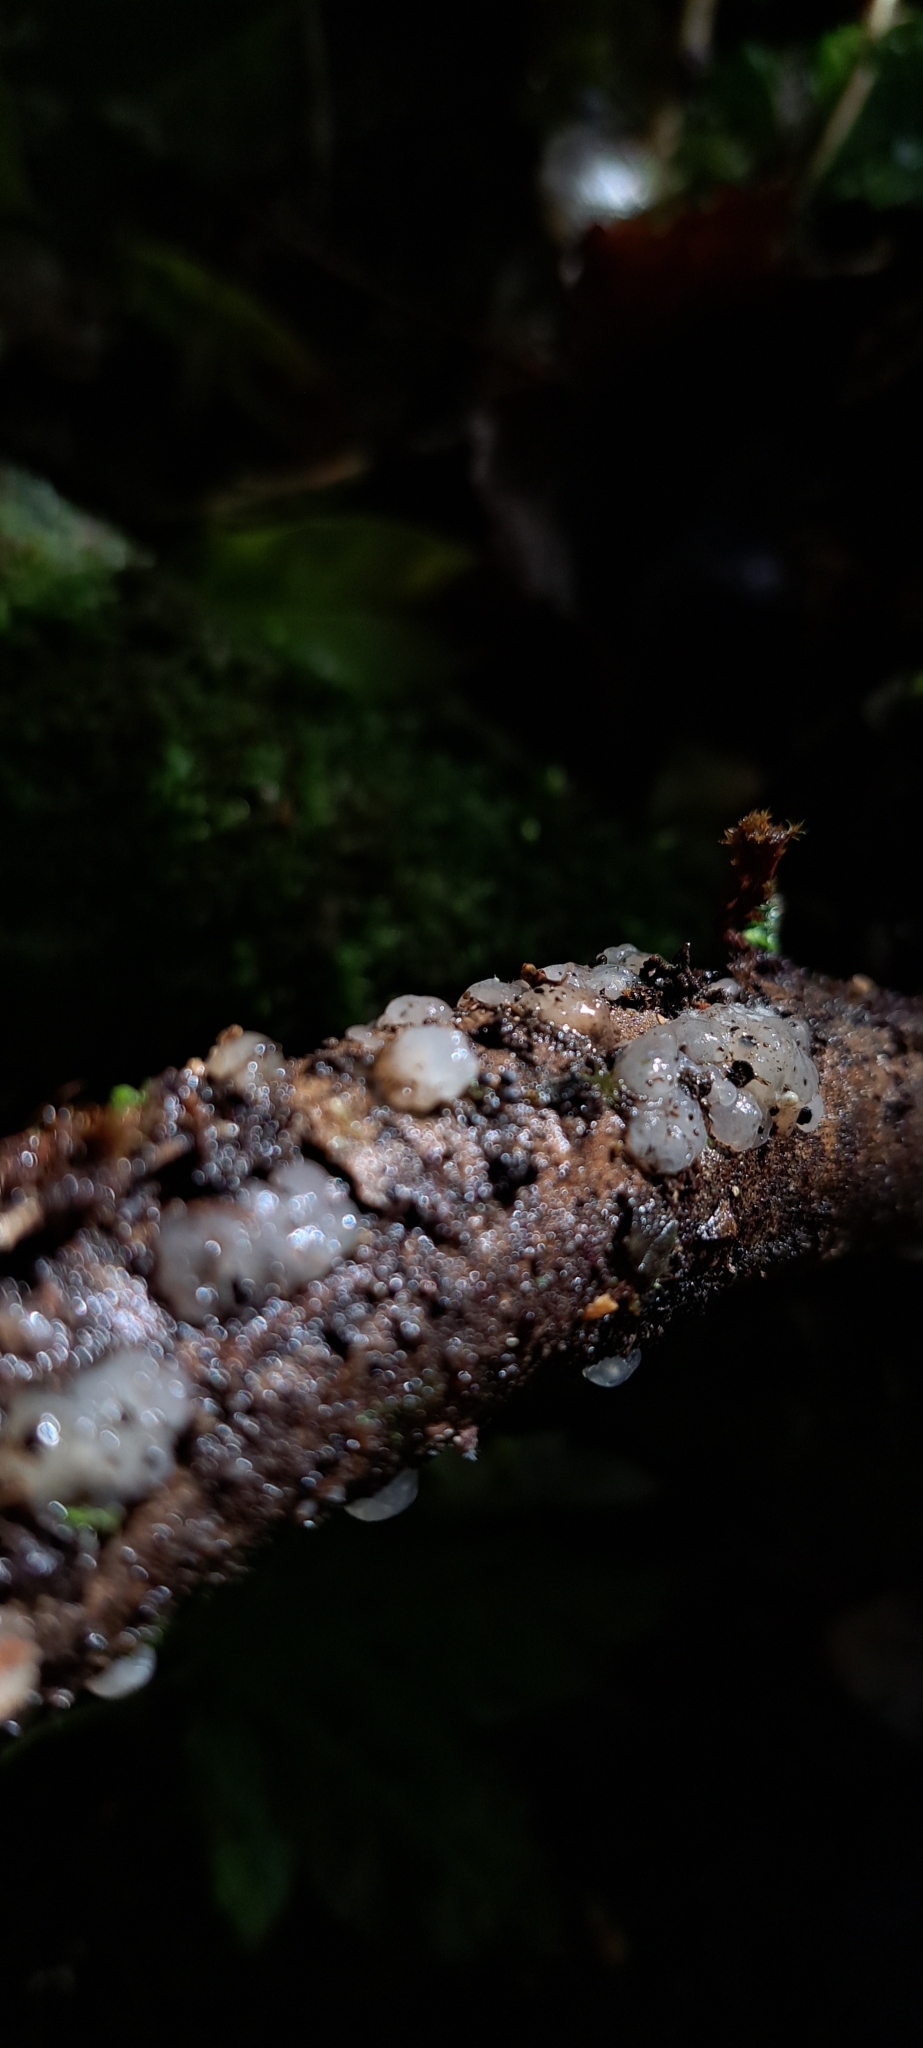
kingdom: Fungi
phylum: Basidiomycota
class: Agaricomycetes
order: Auriculariales
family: Hyaloriaceae
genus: Myxarium
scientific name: Myxarium nucleatum
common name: Crystal brain fungus
